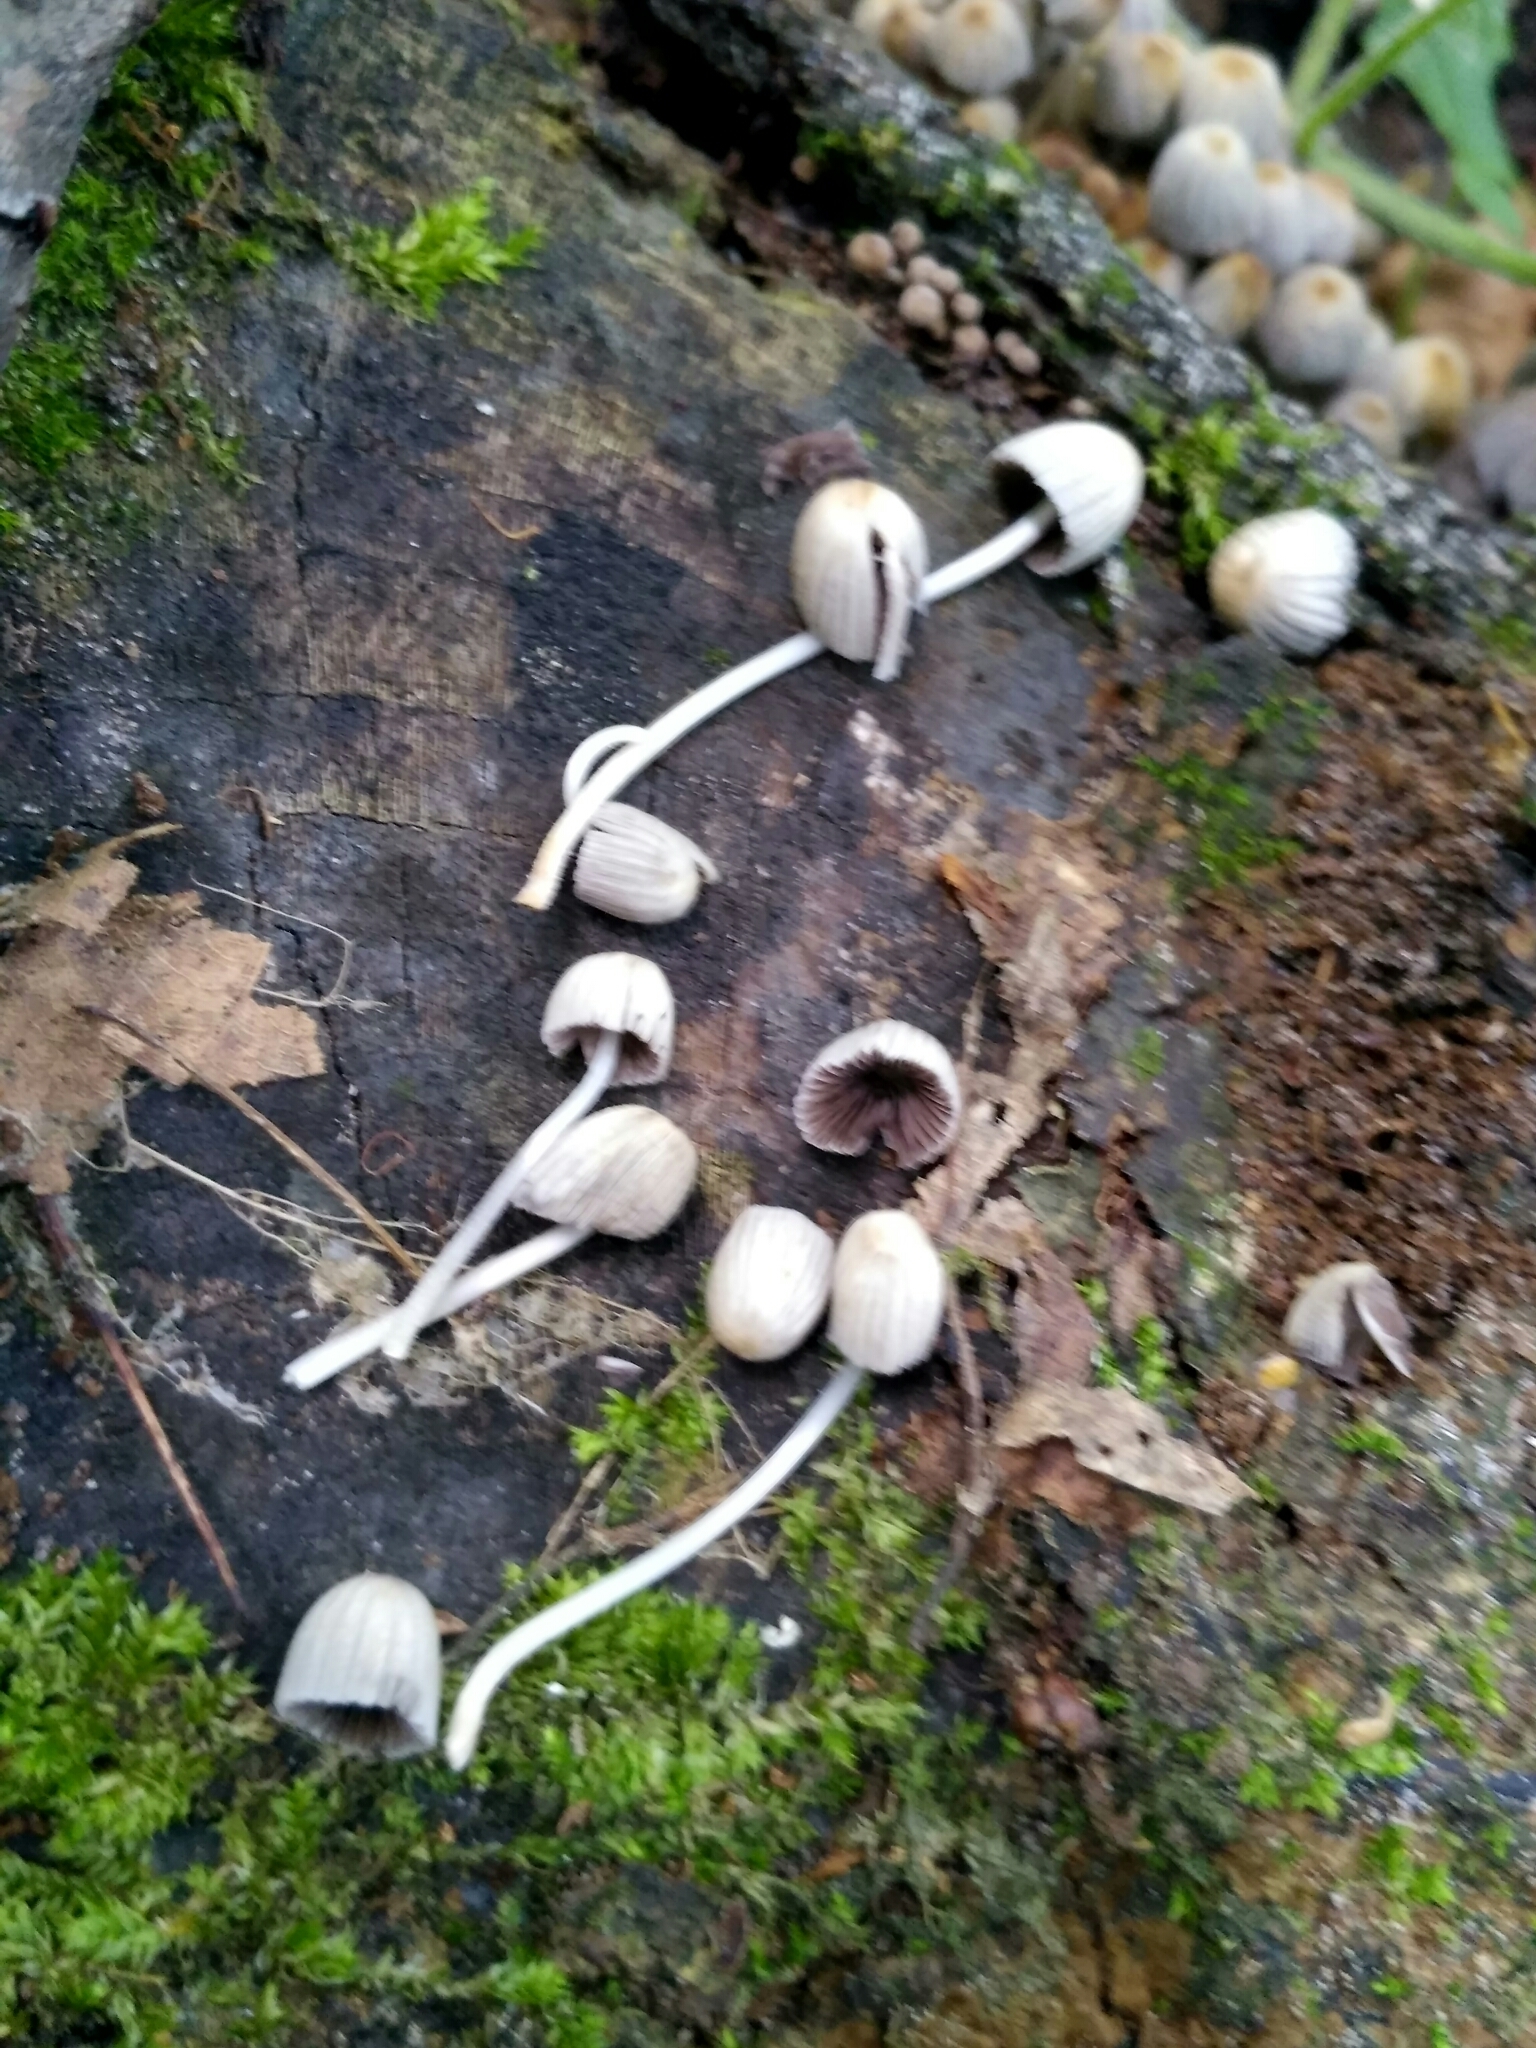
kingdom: Fungi
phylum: Basidiomycota
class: Agaricomycetes
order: Agaricales
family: Psathyrellaceae
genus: Coprinellus
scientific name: Coprinellus disseminatus
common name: Fairies' bonnets
